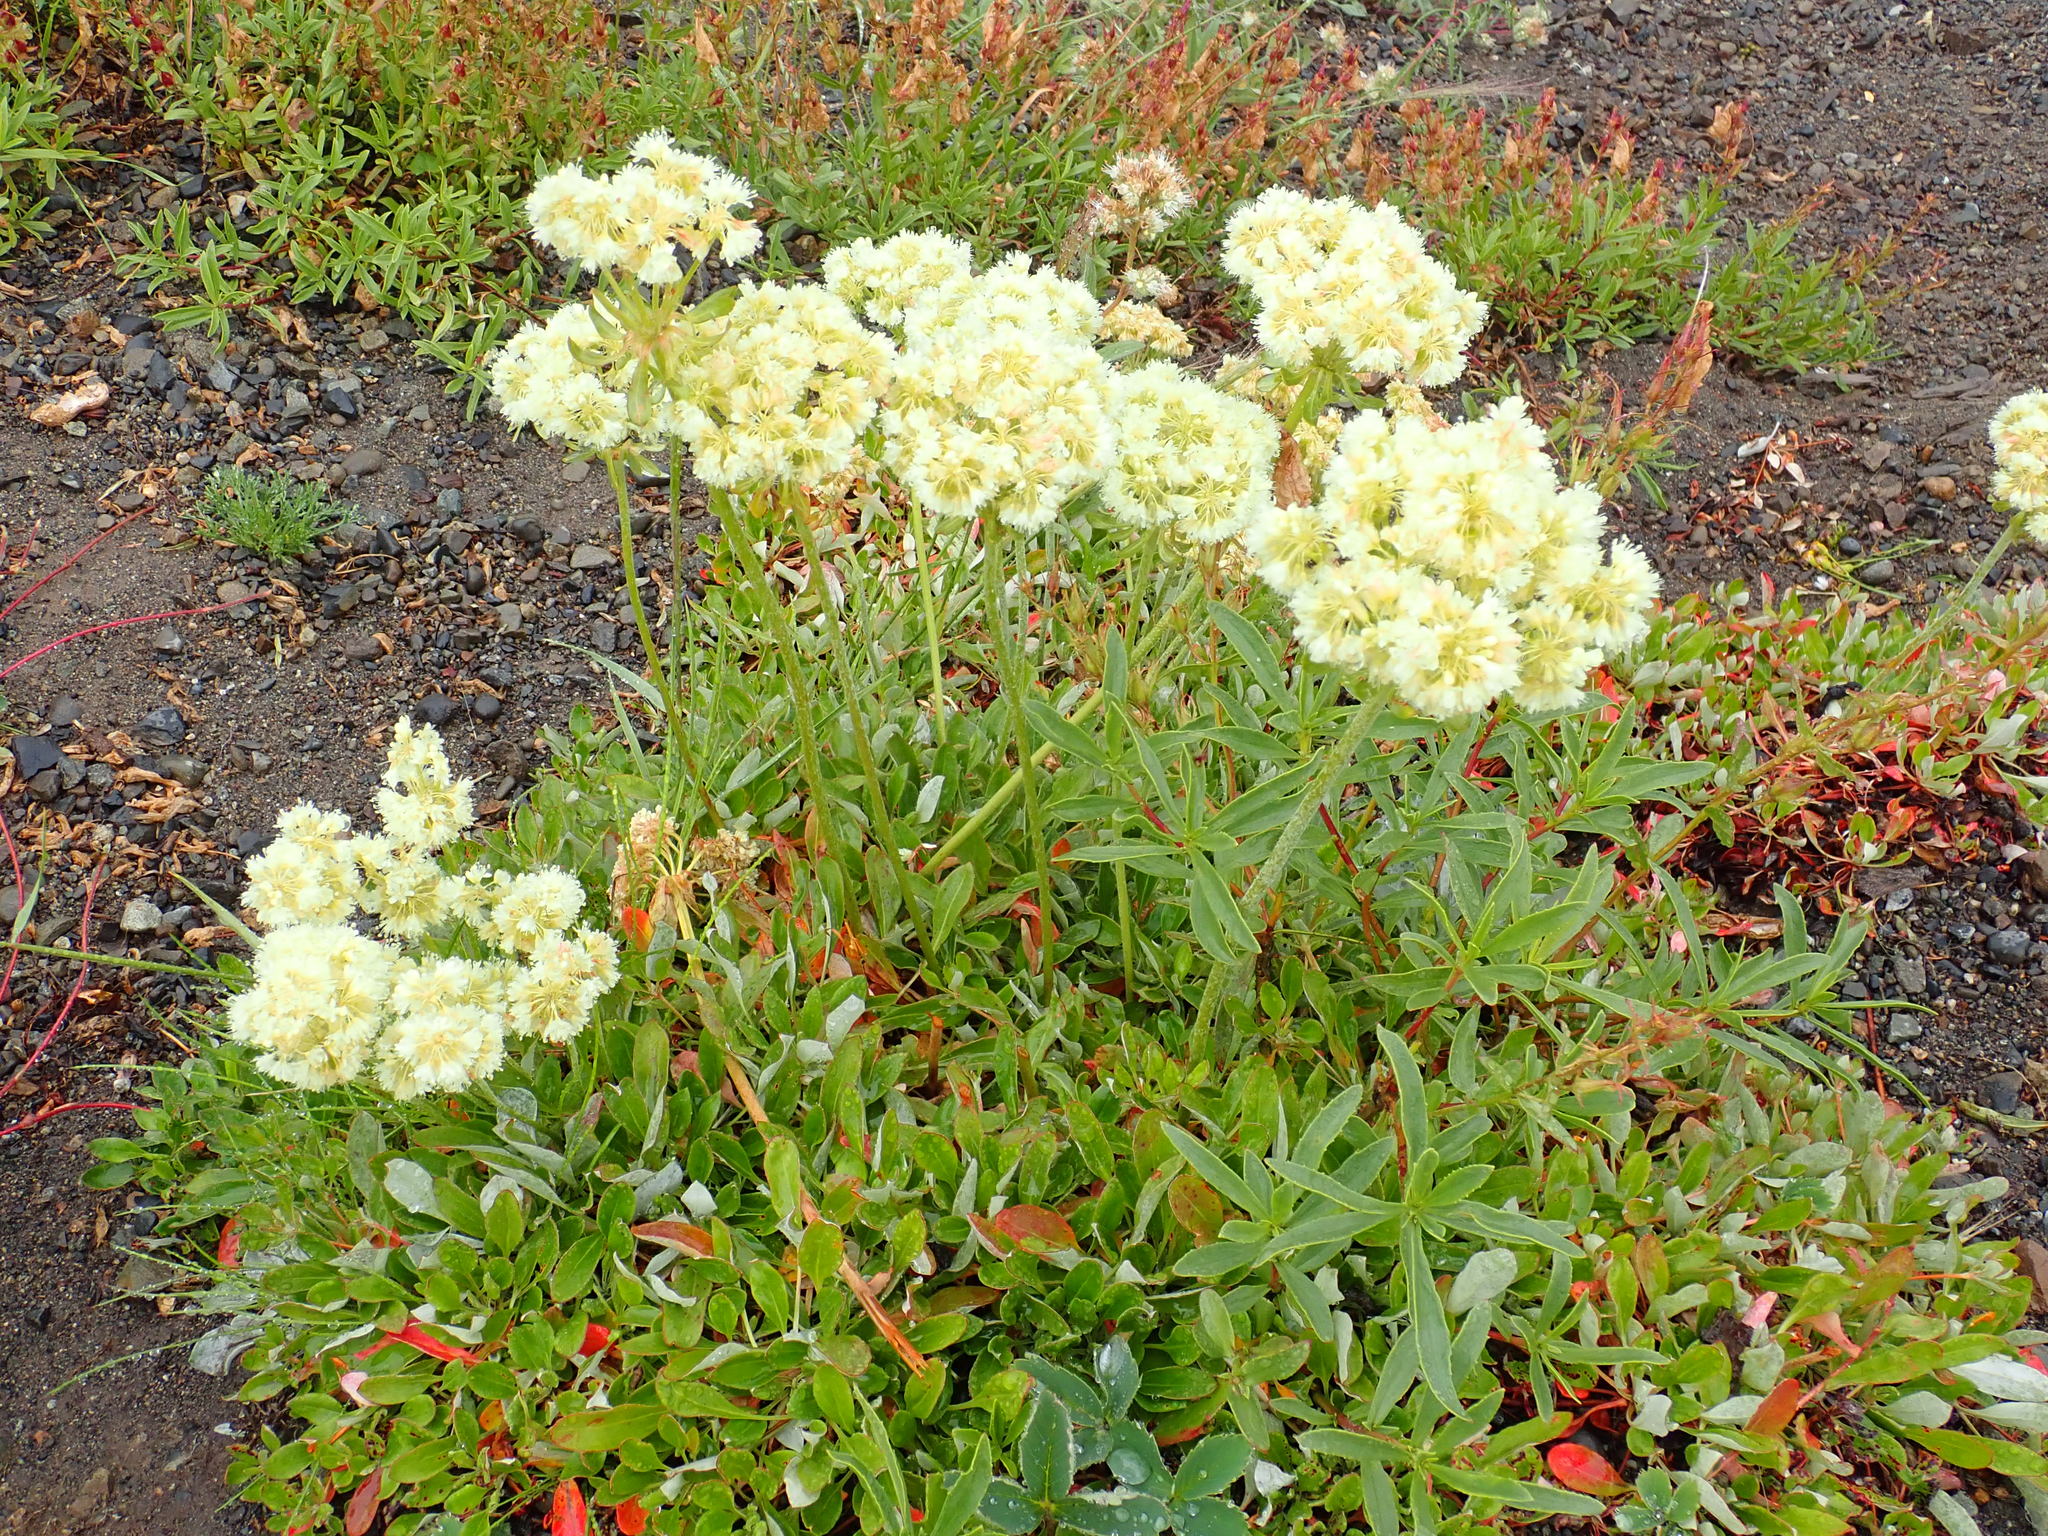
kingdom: Plantae
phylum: Tracheophyta
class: Magnoliopsida
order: Caryophyllales
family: Polygonaceae
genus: Eriogonum
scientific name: Eriogonum umbellatum
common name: Sulfur-buckwheat
